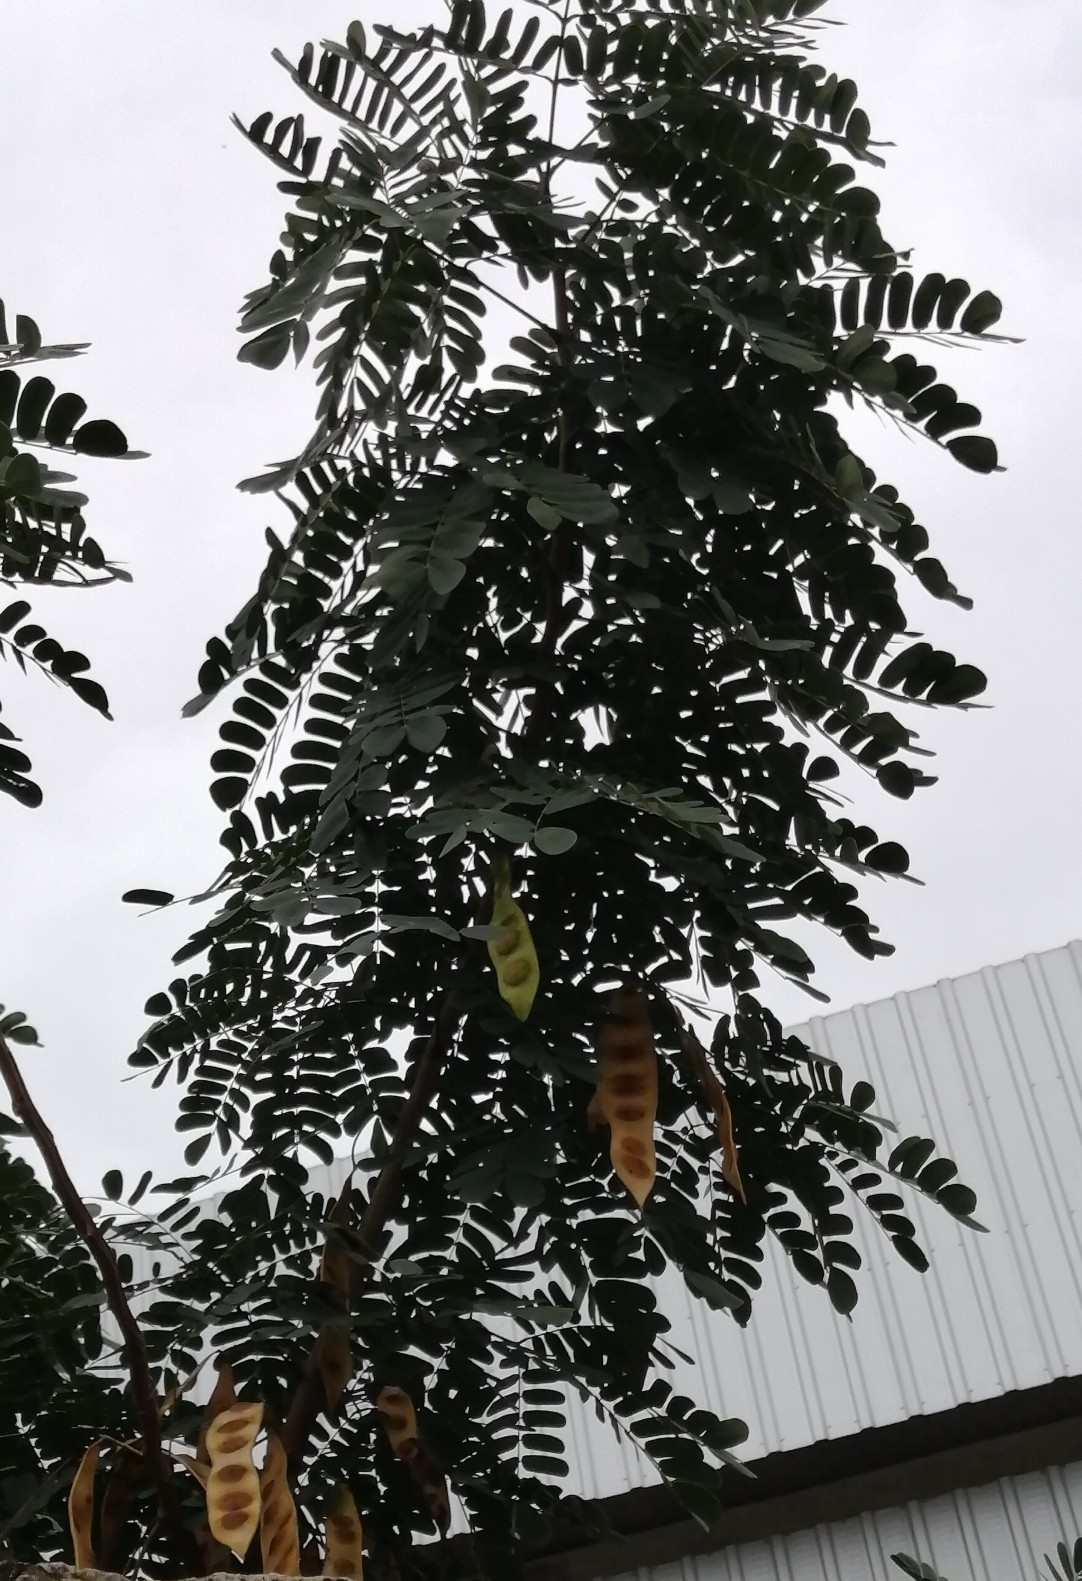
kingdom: Plantae
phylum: Tracheophyta
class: Magnoliopsida
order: Fabales
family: Fabaceae
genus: Albizia
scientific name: Albizia lebbeck
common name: Woman's tongue
